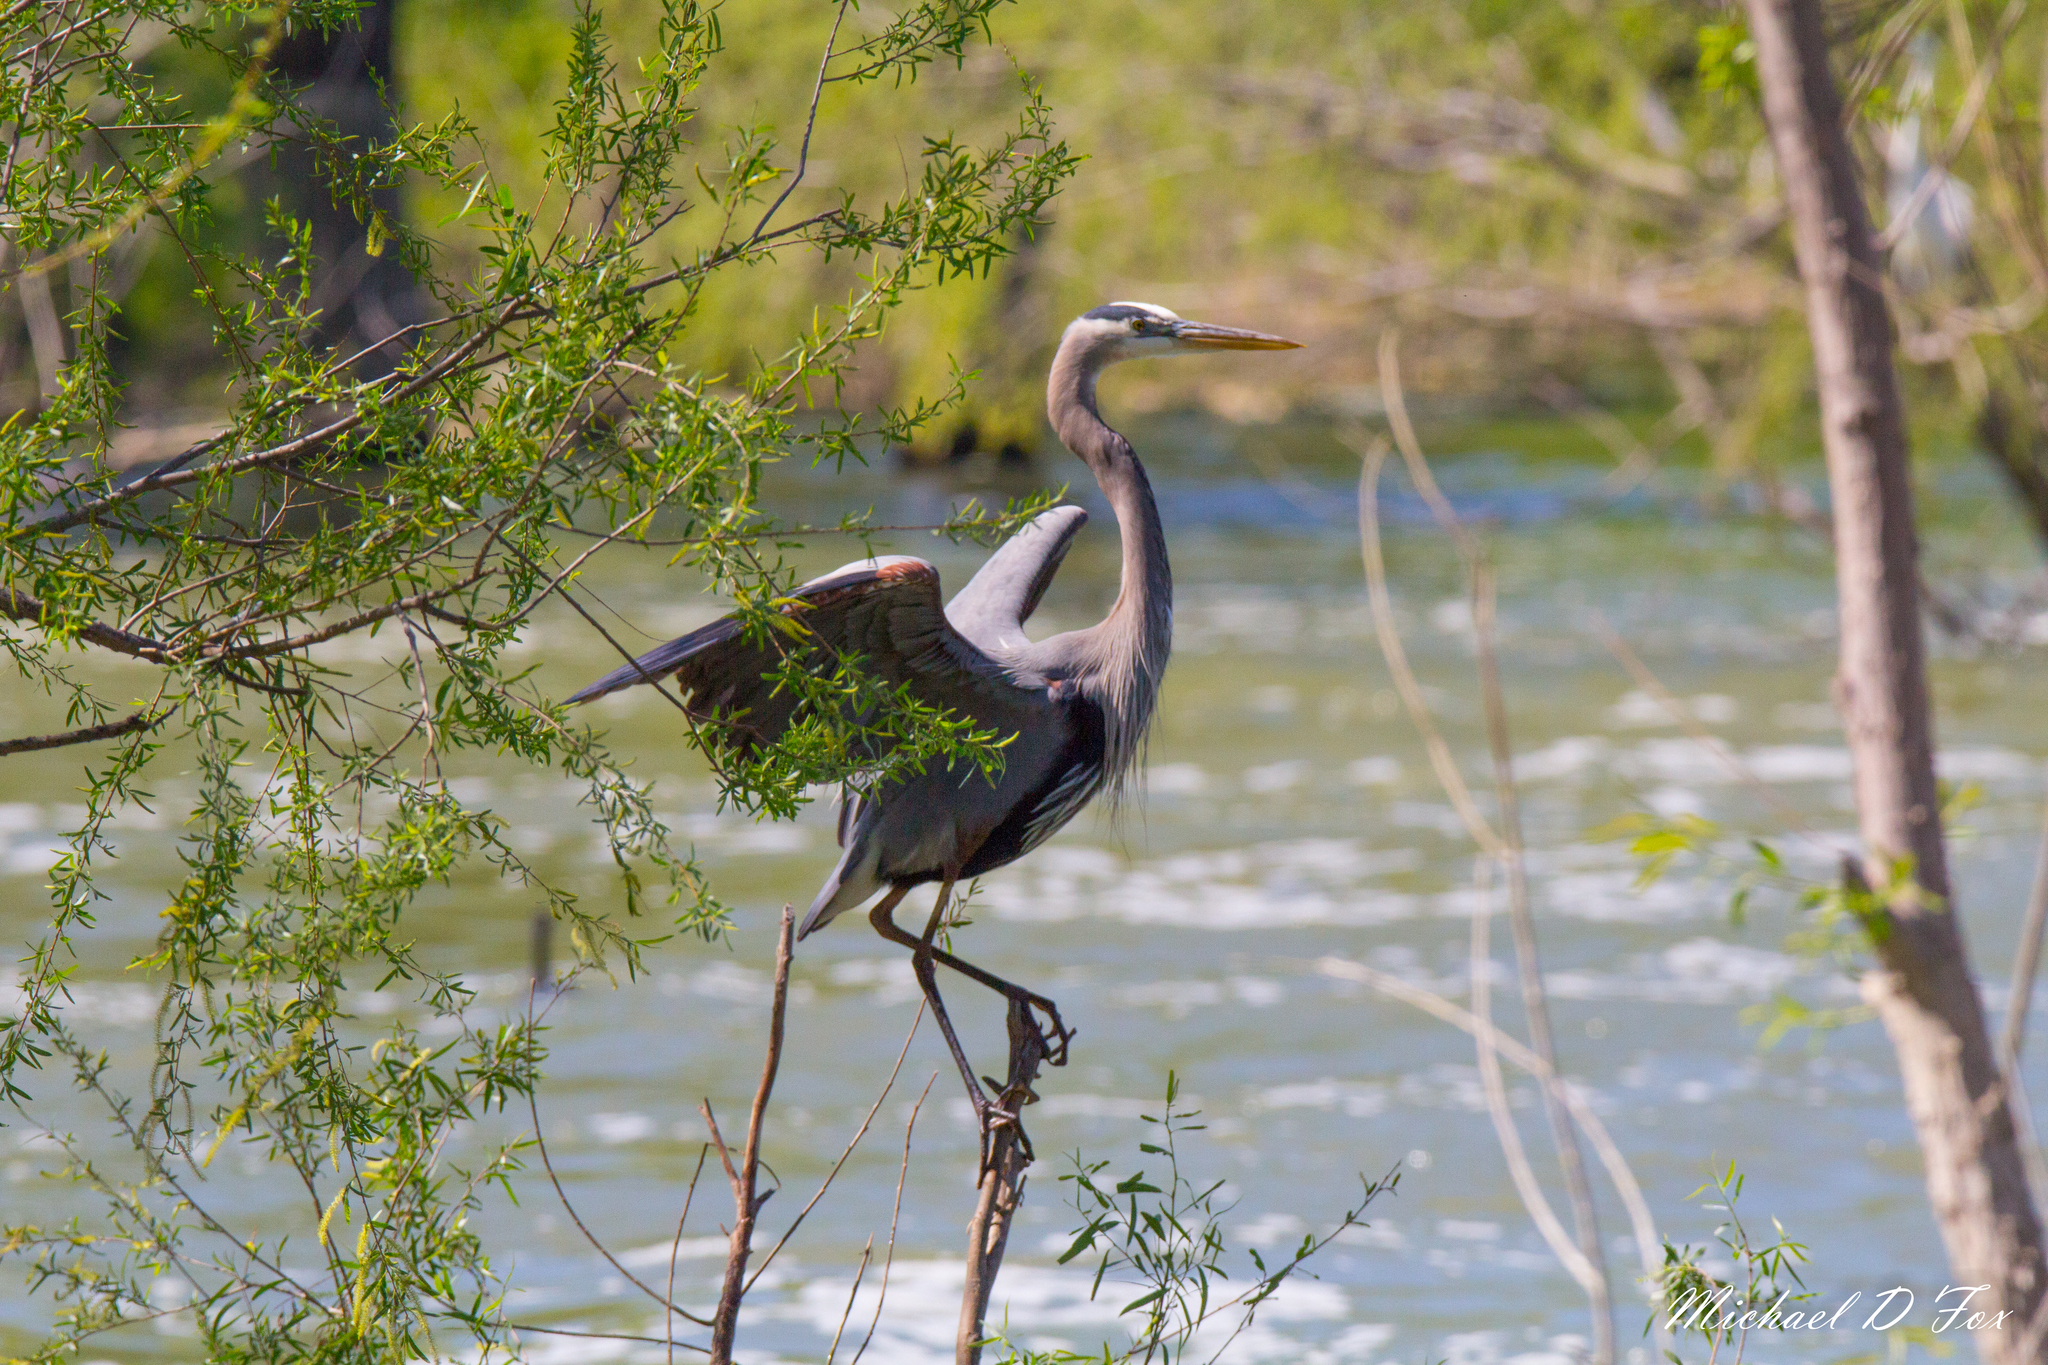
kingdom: Animalia
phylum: Chordata
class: Aves
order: Pelecaniformes
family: Ardeidae
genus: Ardea
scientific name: Ardea herodias
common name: Great blue heron
